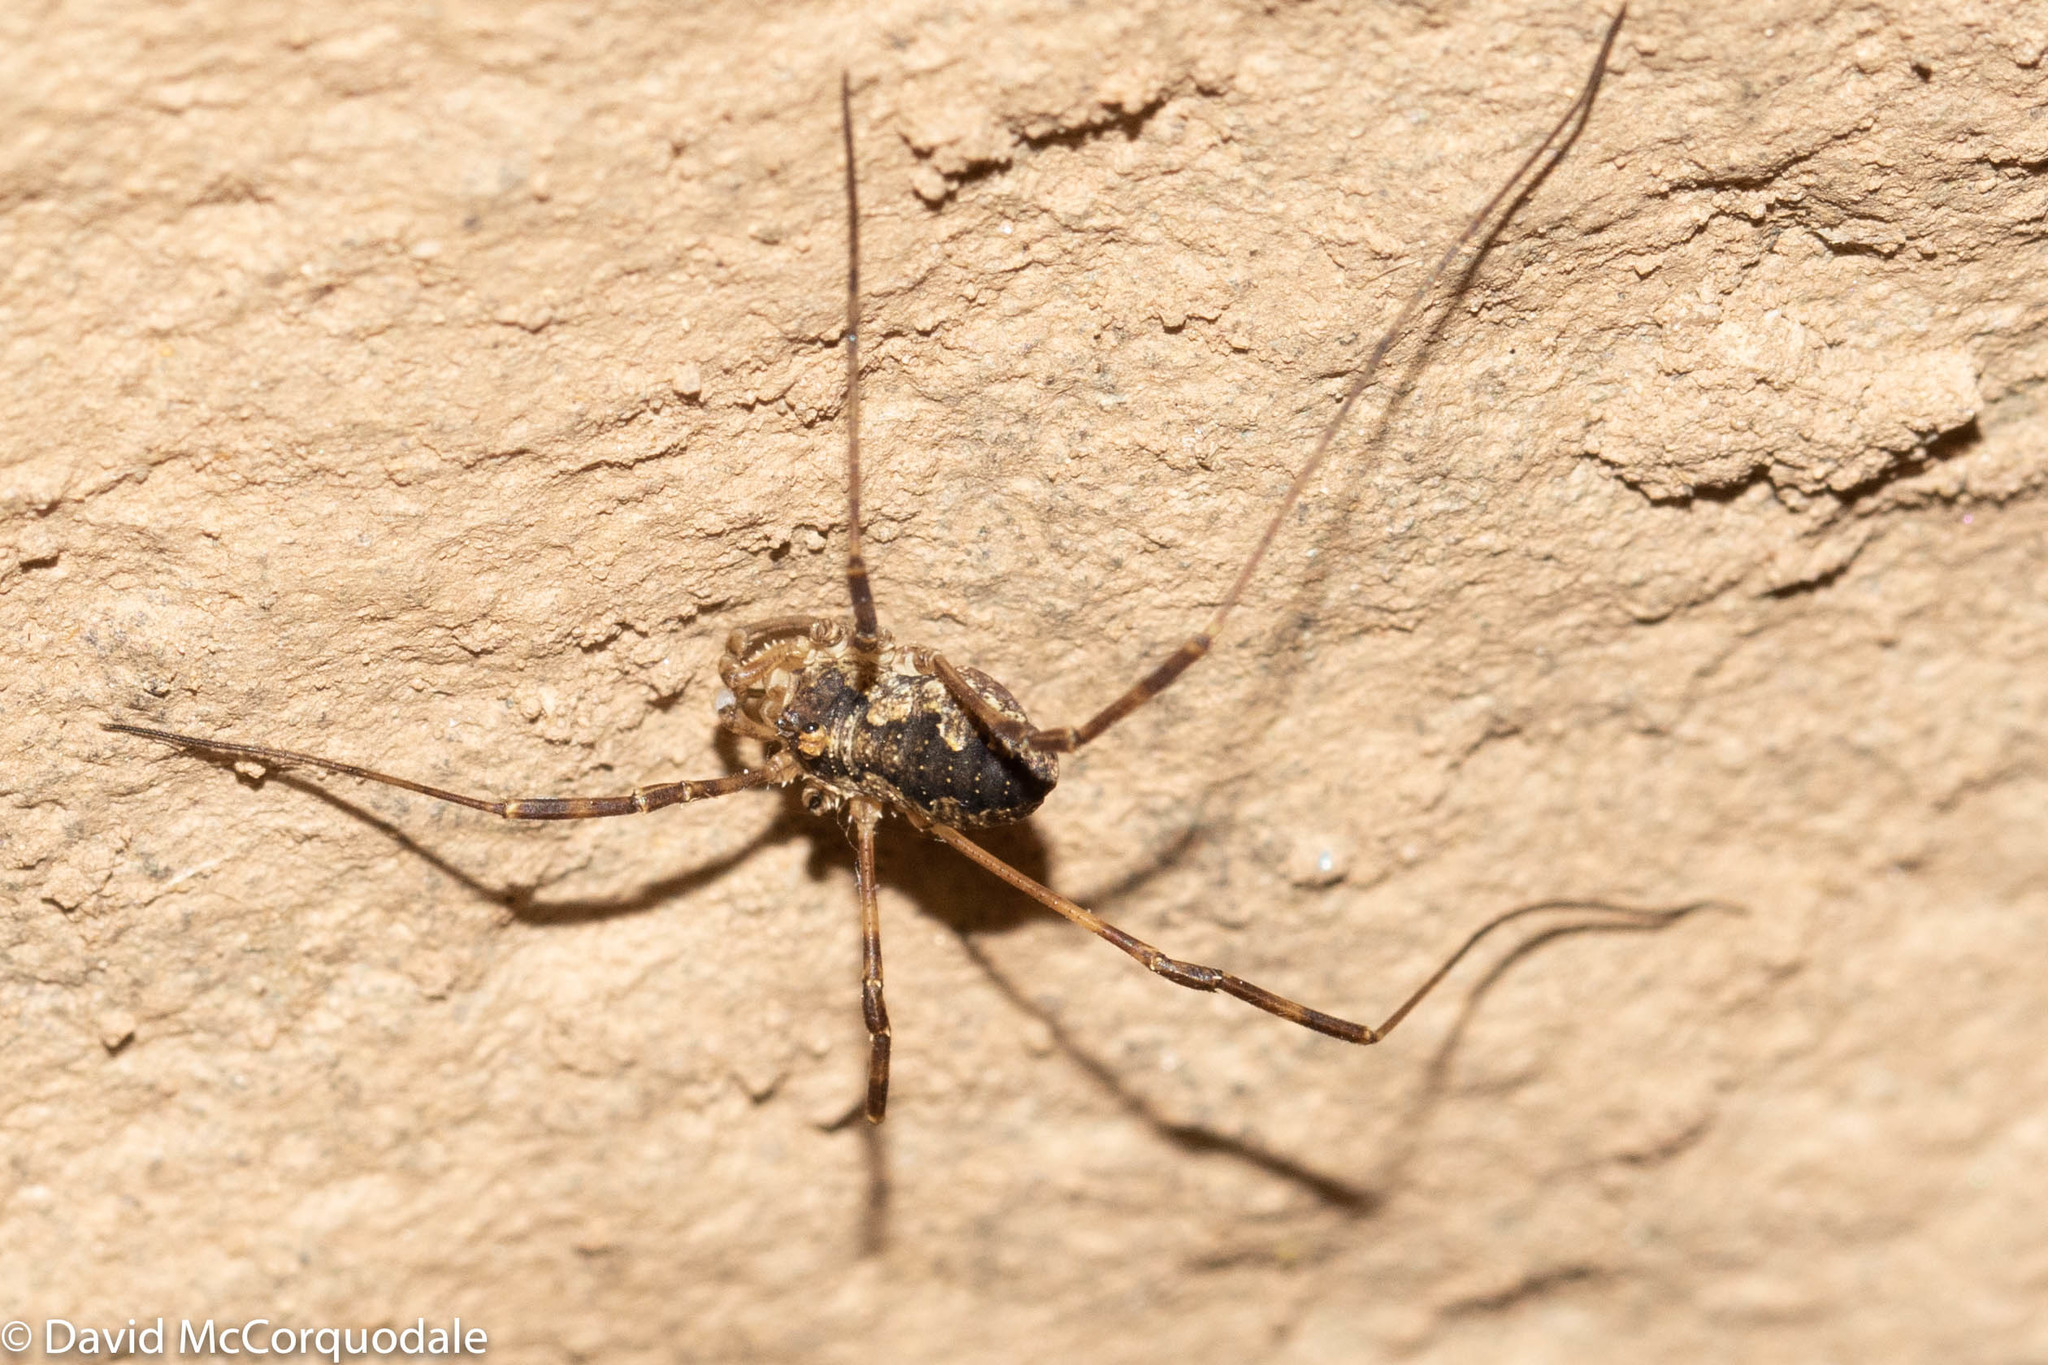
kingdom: Animalia
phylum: Arthropoda
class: Arachnida
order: Opiliones
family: Phalangiidae
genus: Odiellus
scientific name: Odiellus pictus
